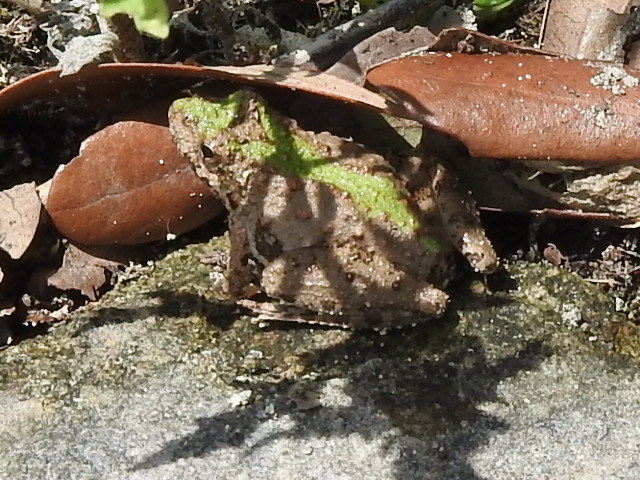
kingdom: Animalia
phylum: Chordata
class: Amphibia
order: Anura
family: Hylidae
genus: Acris
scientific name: Acris blanchardi
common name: Blanchard's cricket frog
